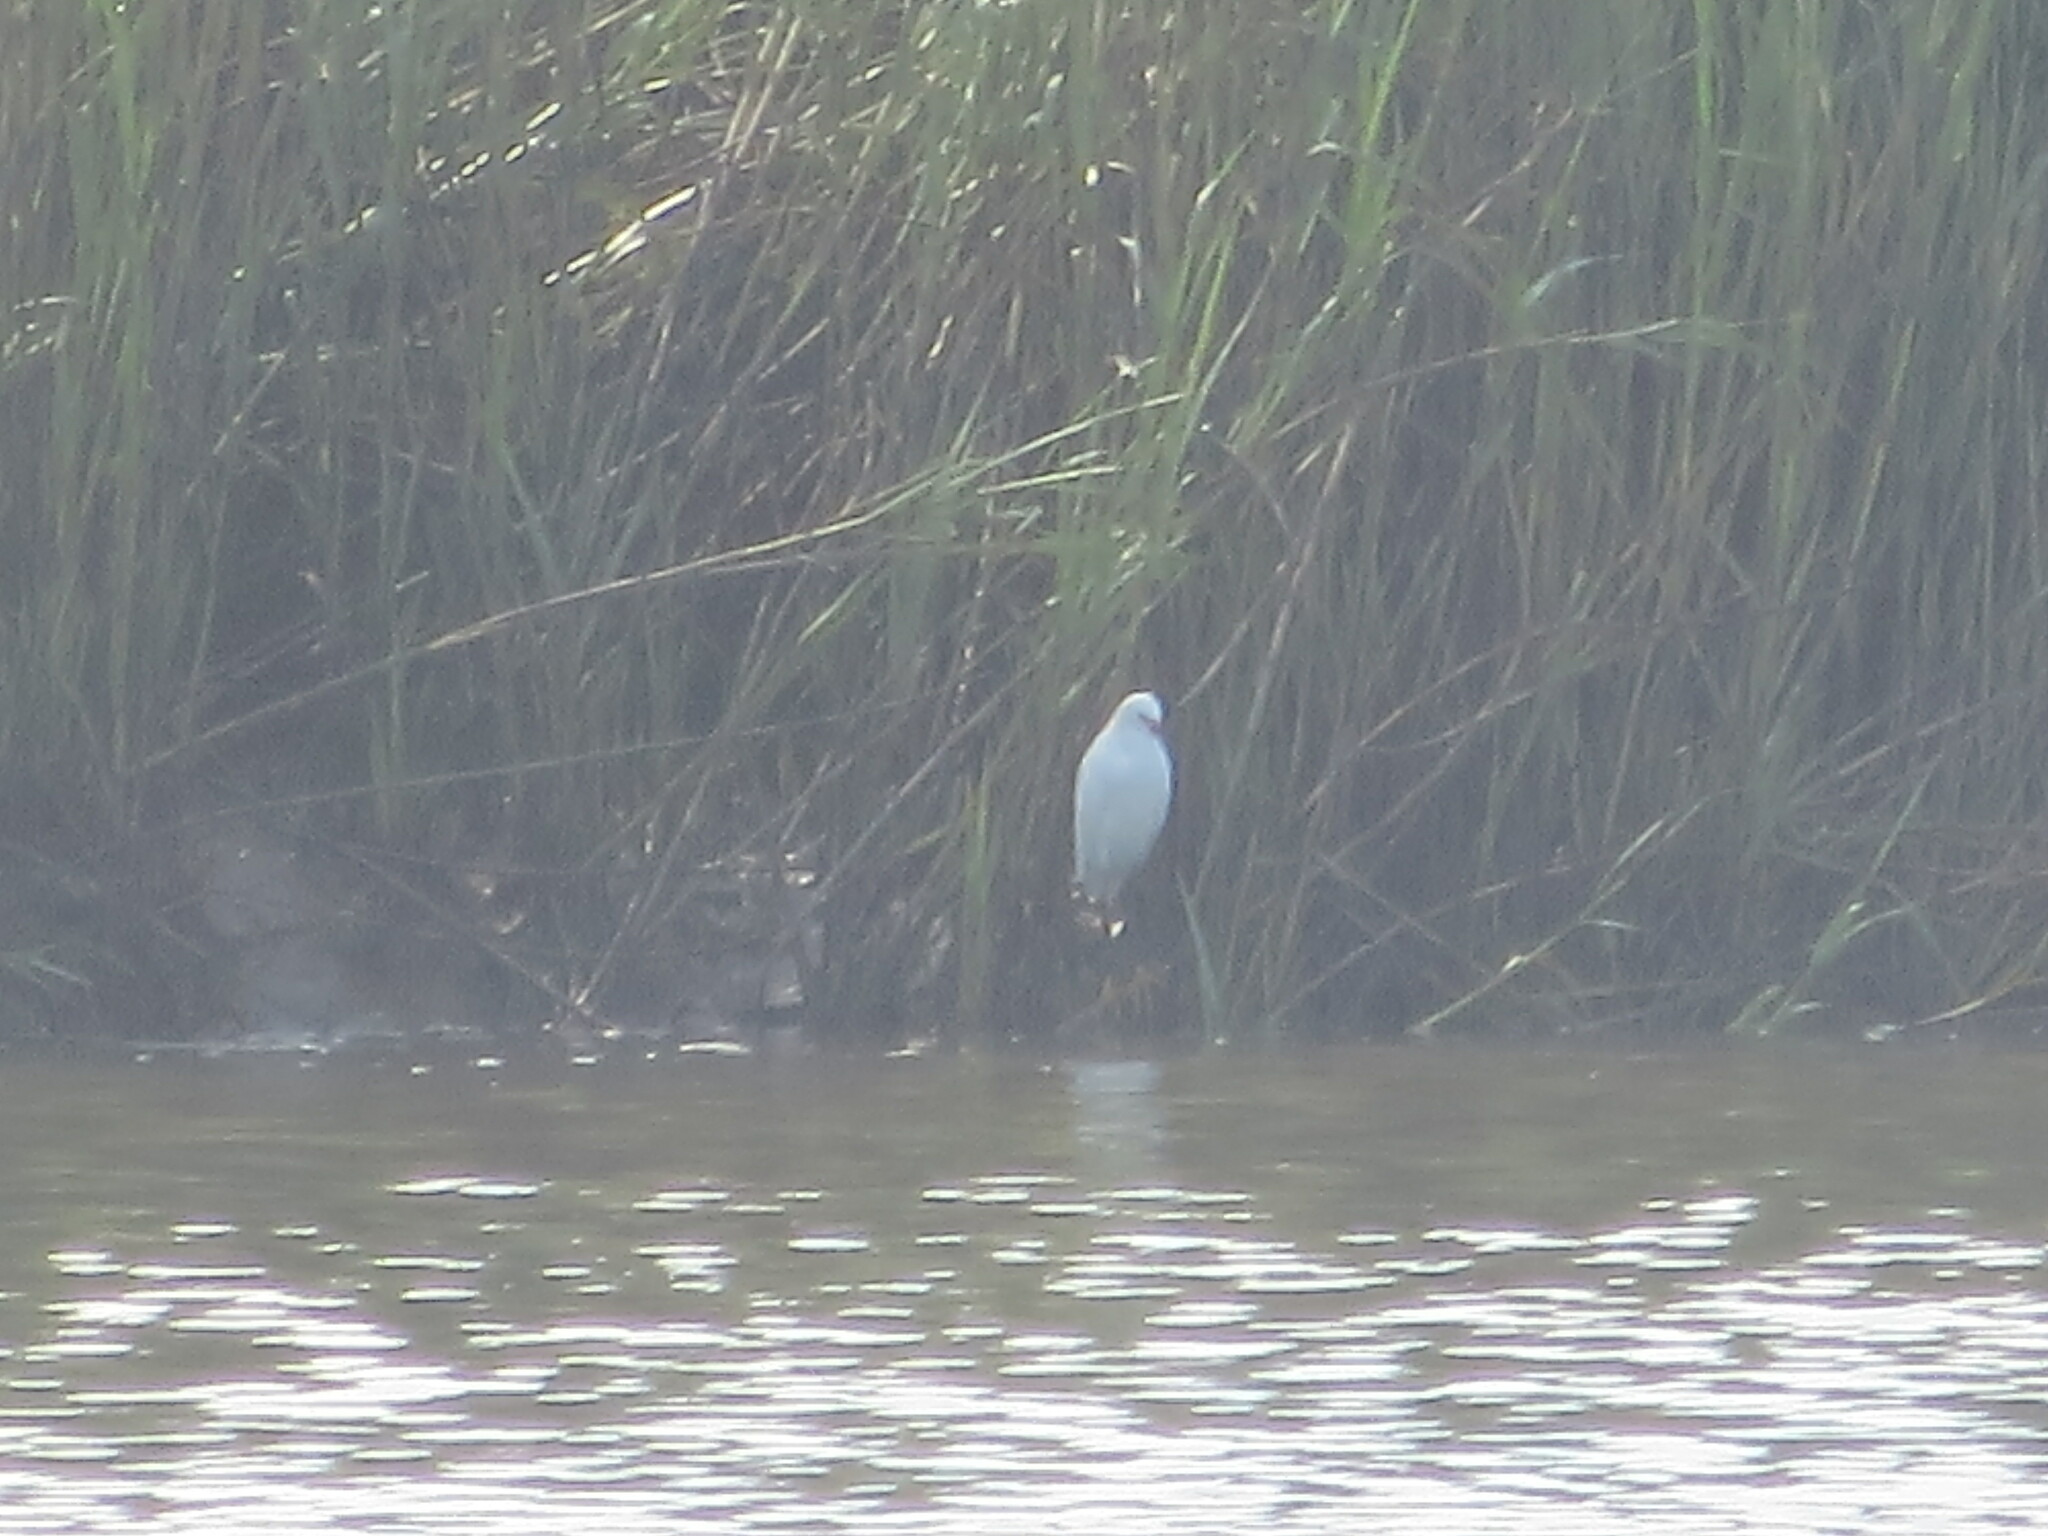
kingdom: Animalia
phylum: Chordata
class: Aves
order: Pelecaniformes
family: Ardeidae
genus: Egretta
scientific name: Egretta thula
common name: Snowy egret
